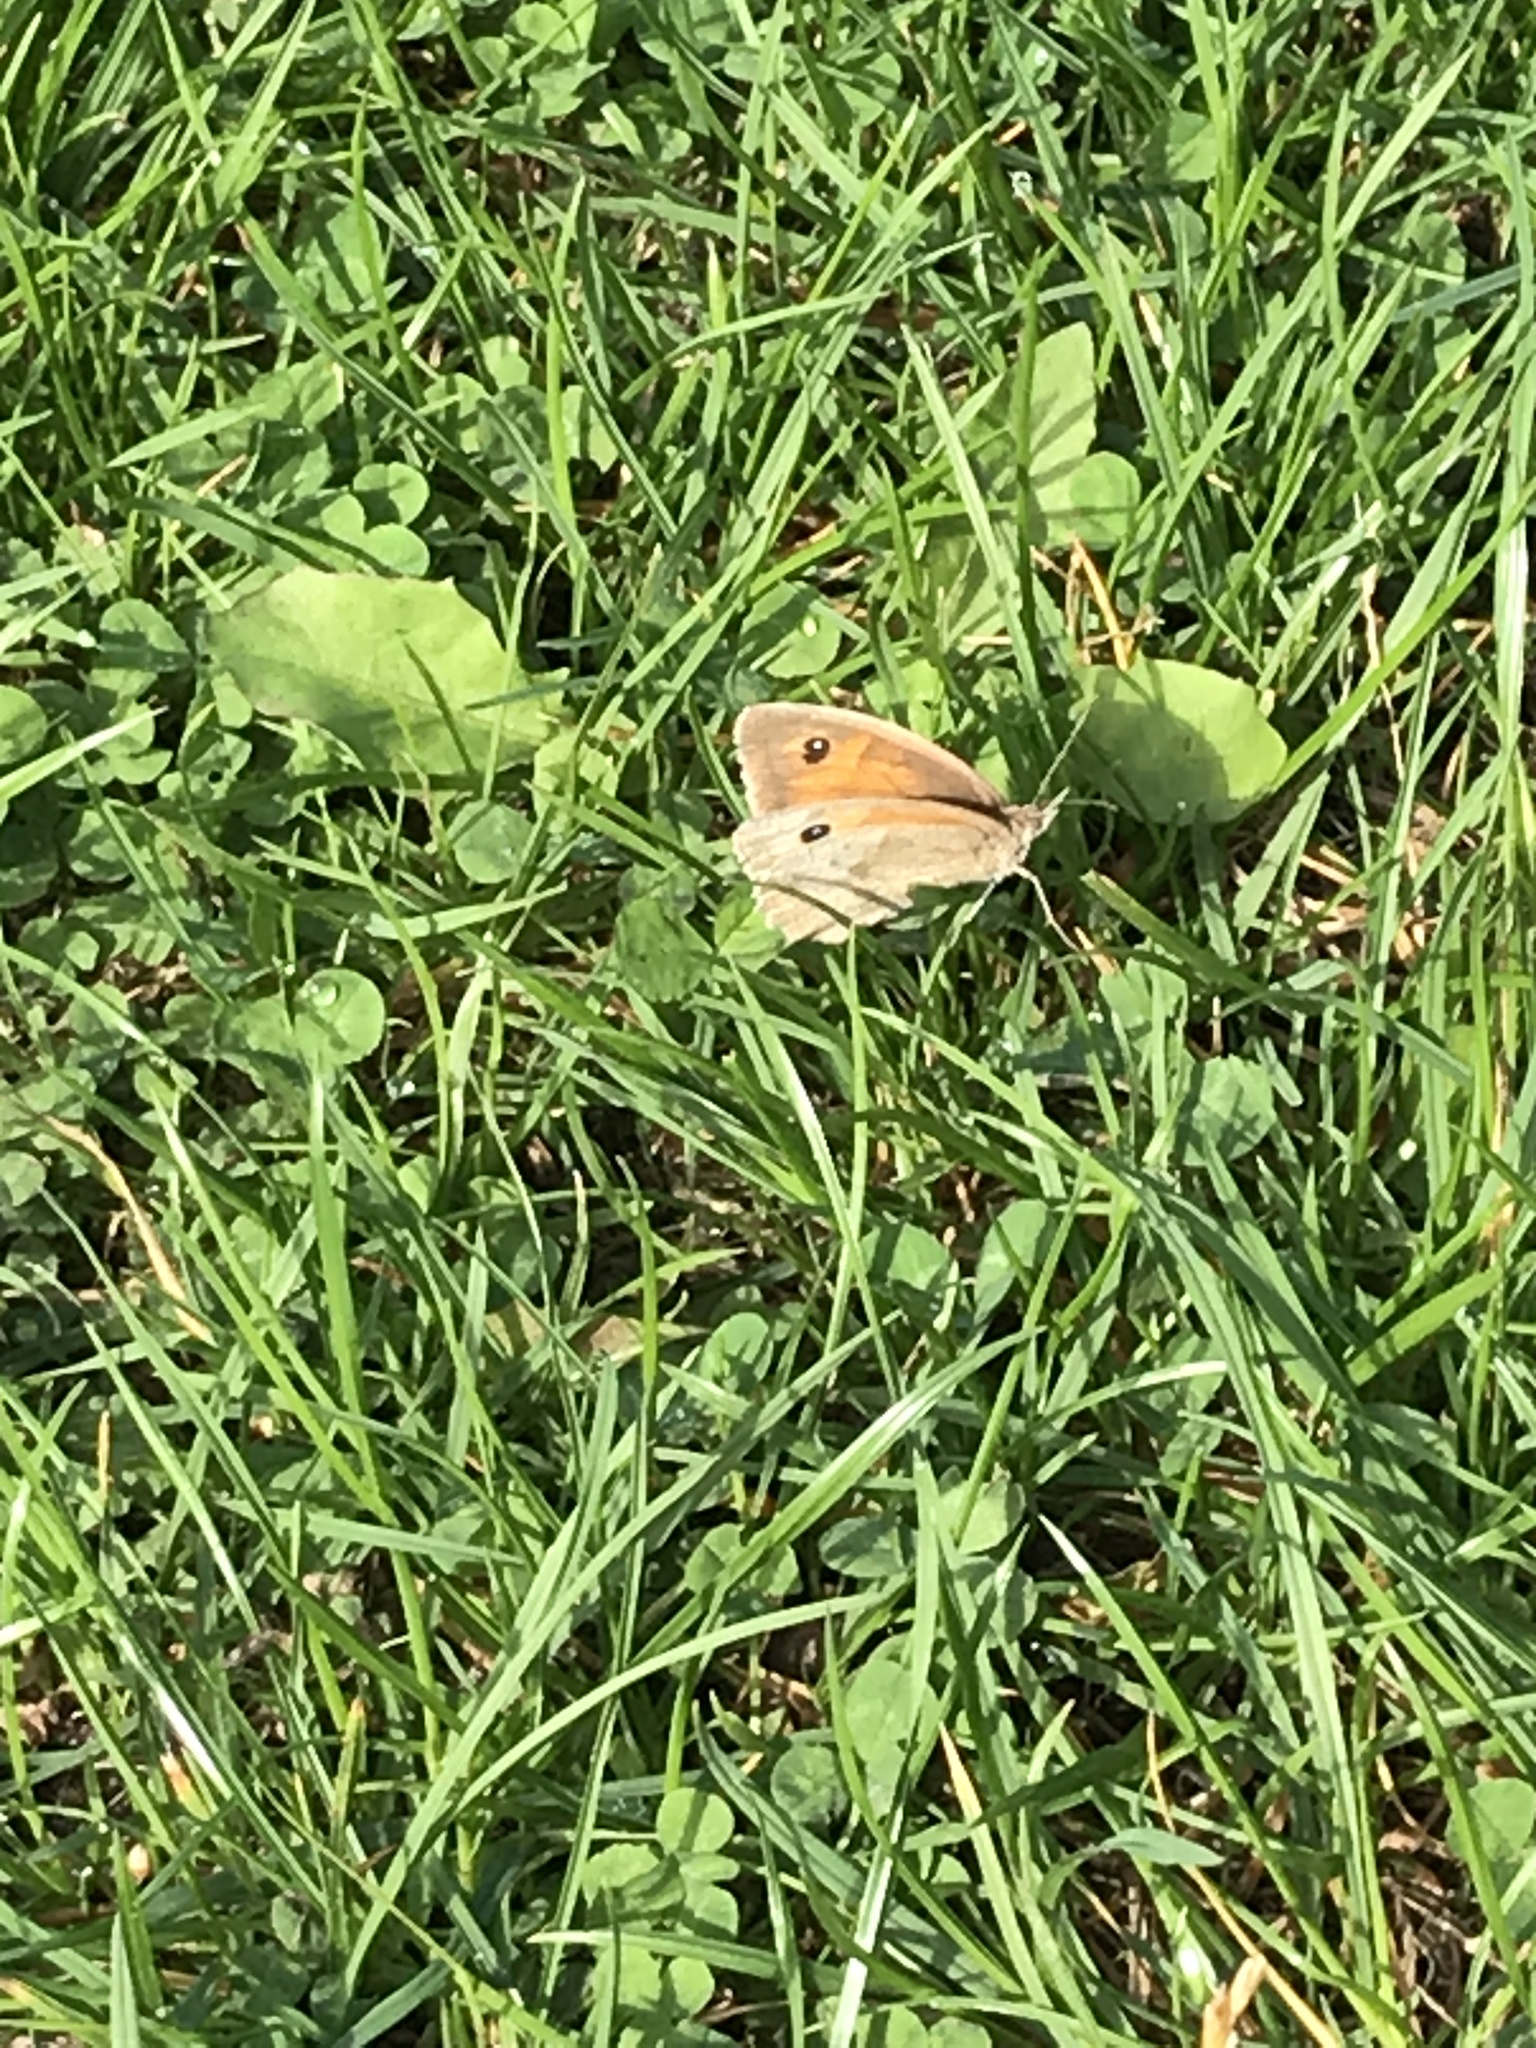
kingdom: Animalia
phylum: Arthropoda
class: Insecta
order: Lepidoptera
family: Nymphalidae
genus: Maniola
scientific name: Maniola jurtina
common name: Meadow brown
